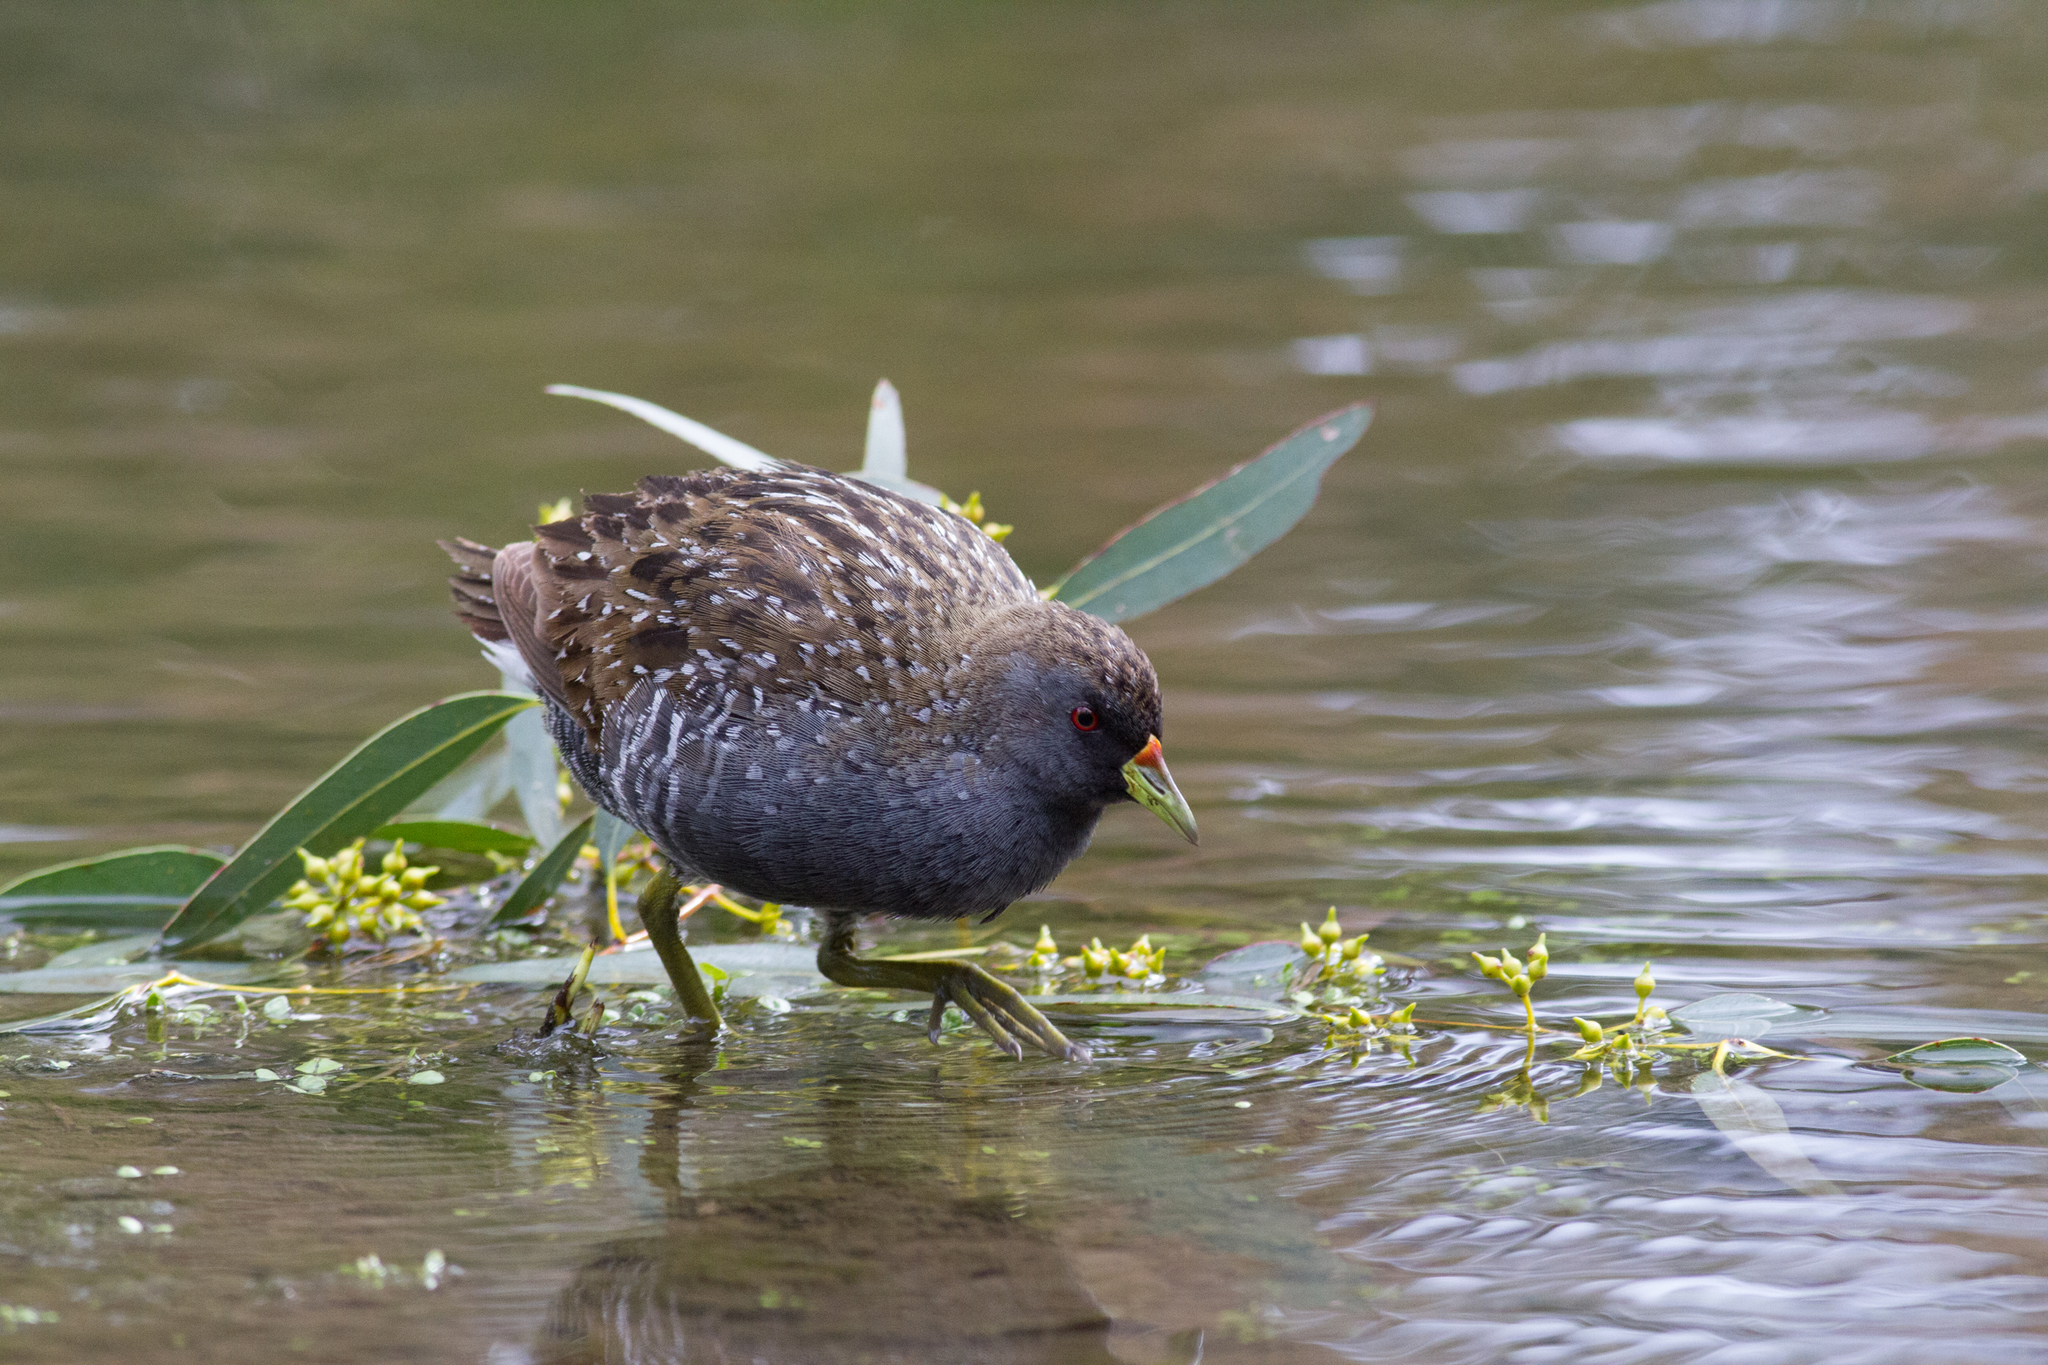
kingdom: Animalia
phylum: Chordata
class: Aves
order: Gruiformes
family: Rallidae
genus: Porzana
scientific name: Porzana fluminea
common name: Australian crake
